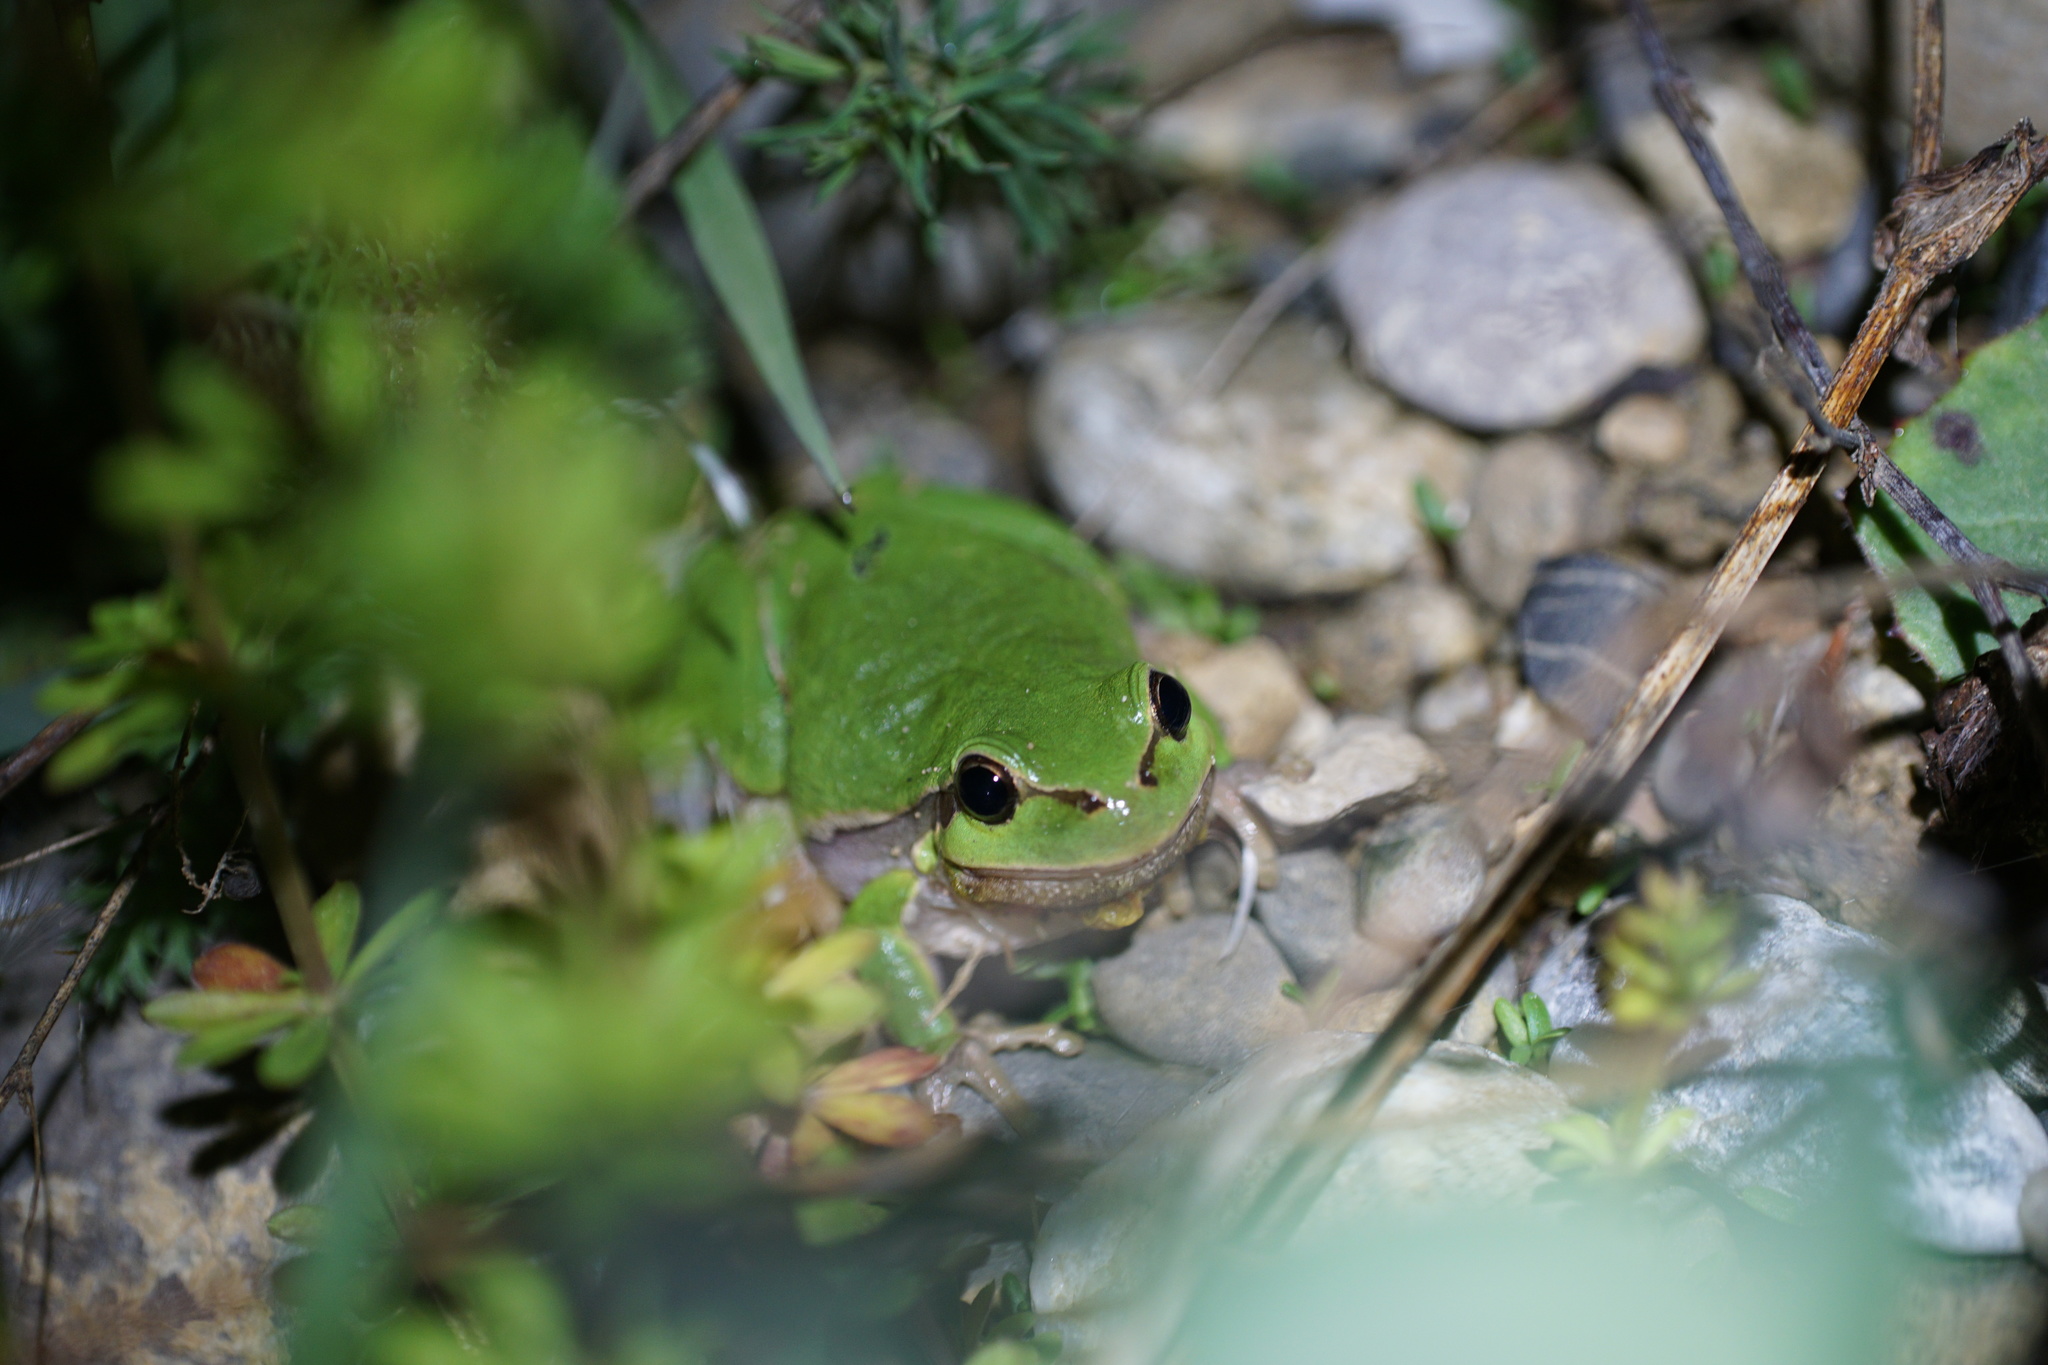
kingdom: Animalia
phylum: Chordata
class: Amphibia
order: Anura
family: Hylidae
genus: Hyla
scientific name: Hyla arborea
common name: Common tree frog
